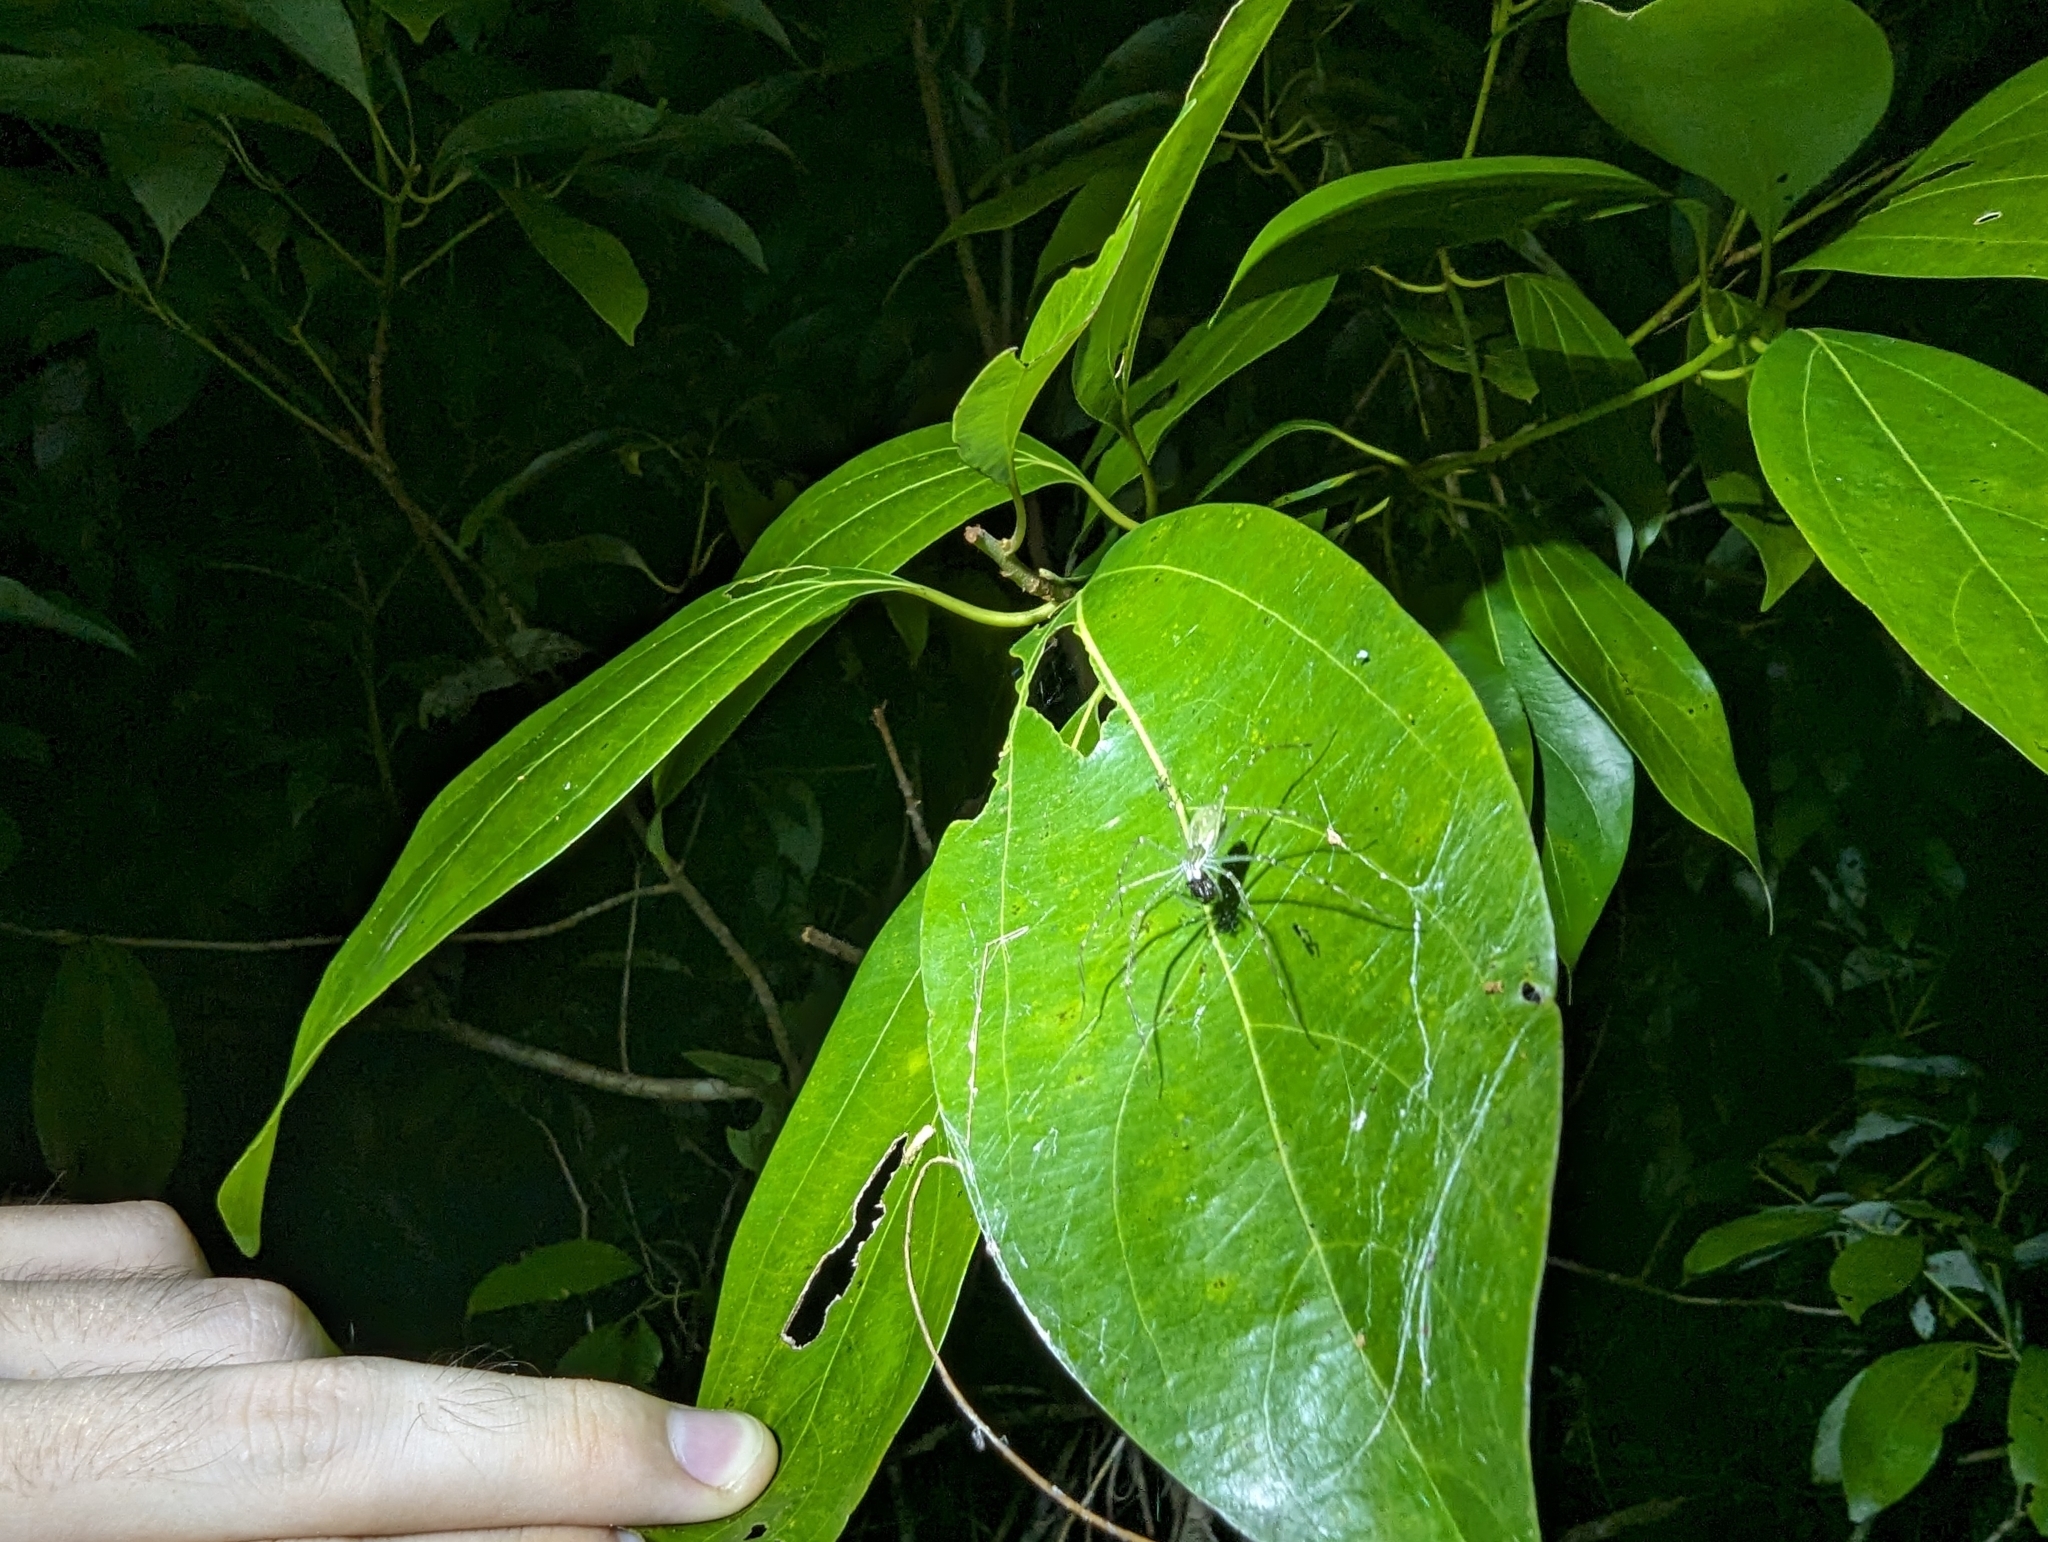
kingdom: Animalia
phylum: Arthropoda
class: Arachnida
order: Araneae
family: Pisauridae
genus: Hygropoda
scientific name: Hygropoda lineata
